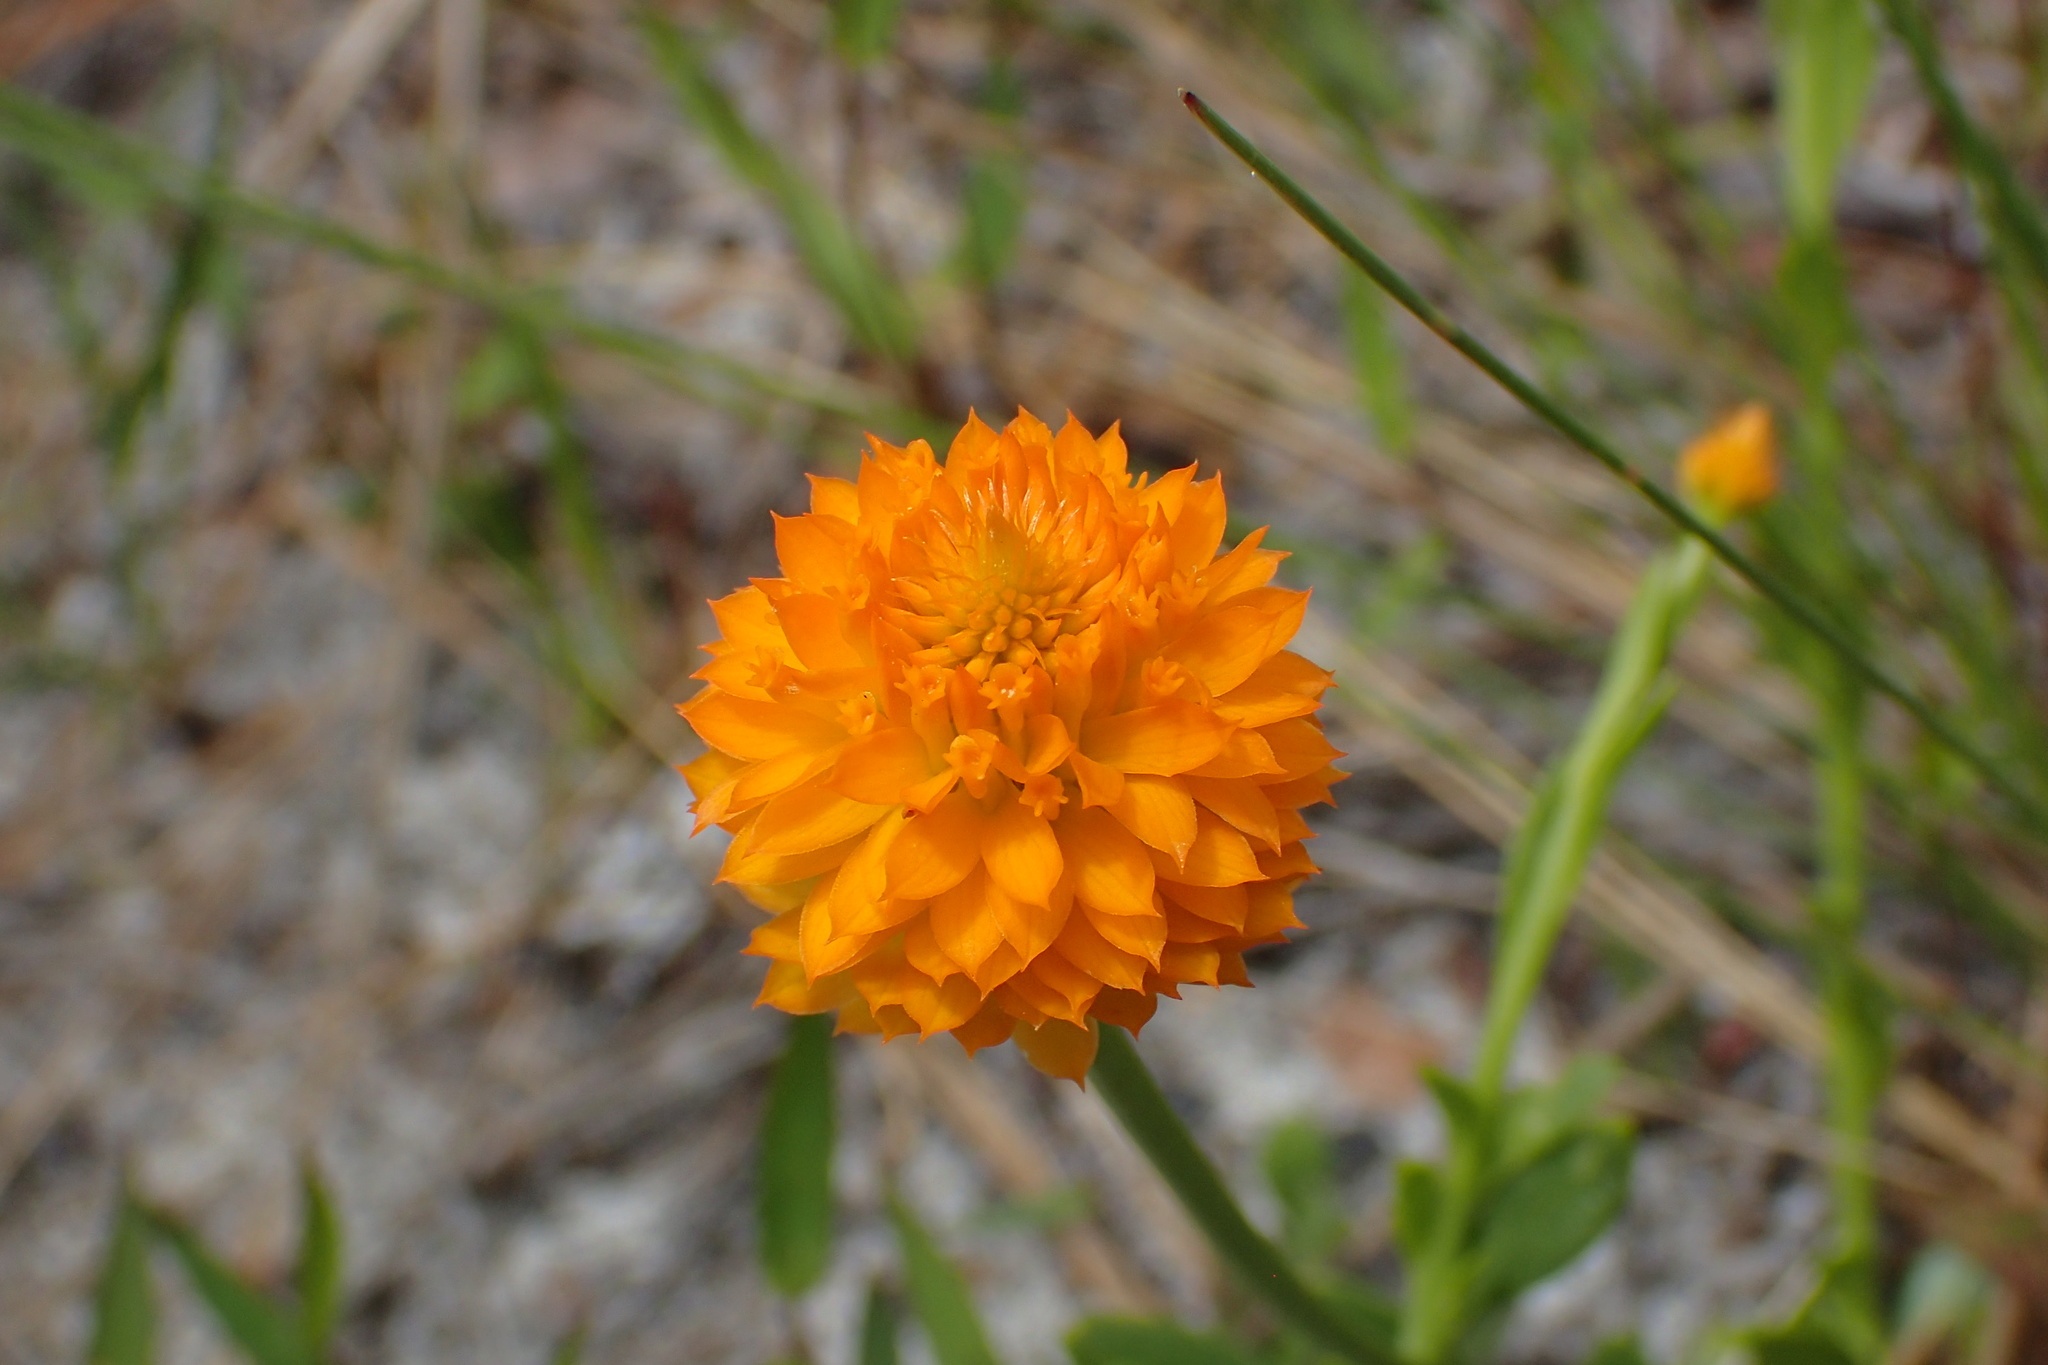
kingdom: Plantae
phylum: Tracheophyta
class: Magnoliopsida
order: Fabales
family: Polygalaceae
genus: Polygala
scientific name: Polygala lutea
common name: Orange milkwort
